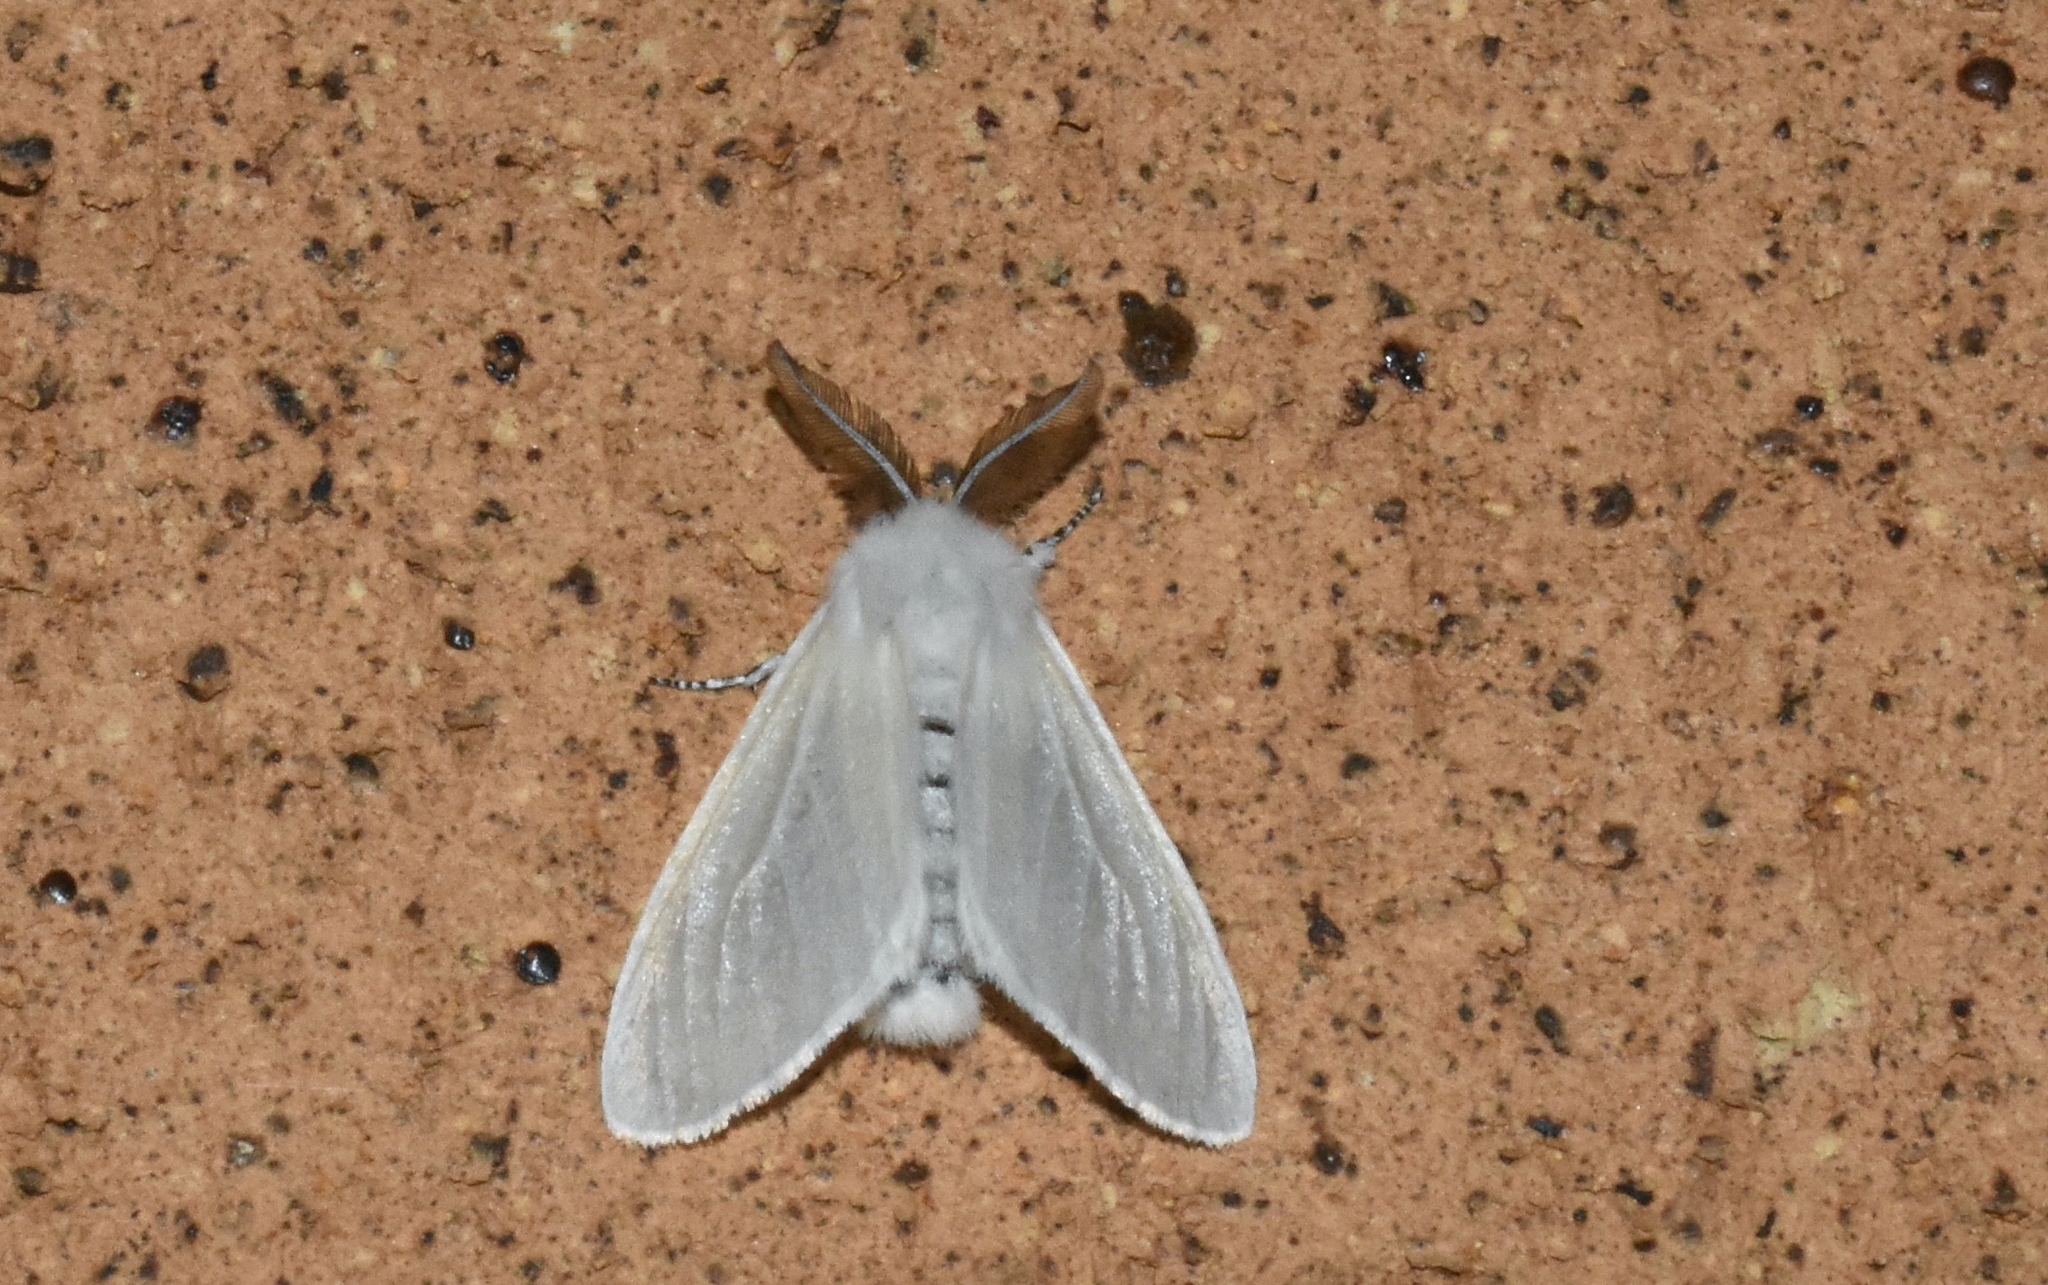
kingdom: Animalia
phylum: Arthropoda
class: Insecta
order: Lepidoptera
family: Erebidae
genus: Leucoma
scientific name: Leucoma salicis
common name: White satin moth
